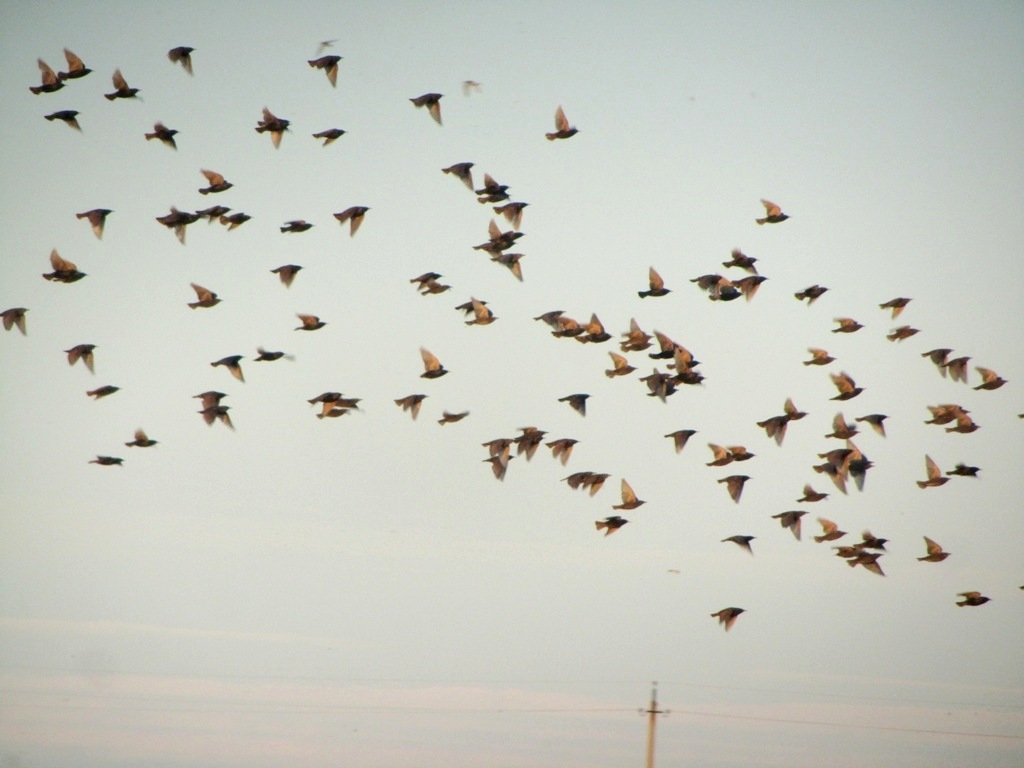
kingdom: Animalia
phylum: Chordata
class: Aves
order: Passeriformes
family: Sturnidae
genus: Sturnus
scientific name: Sturnus vulgaris
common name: Common starling
